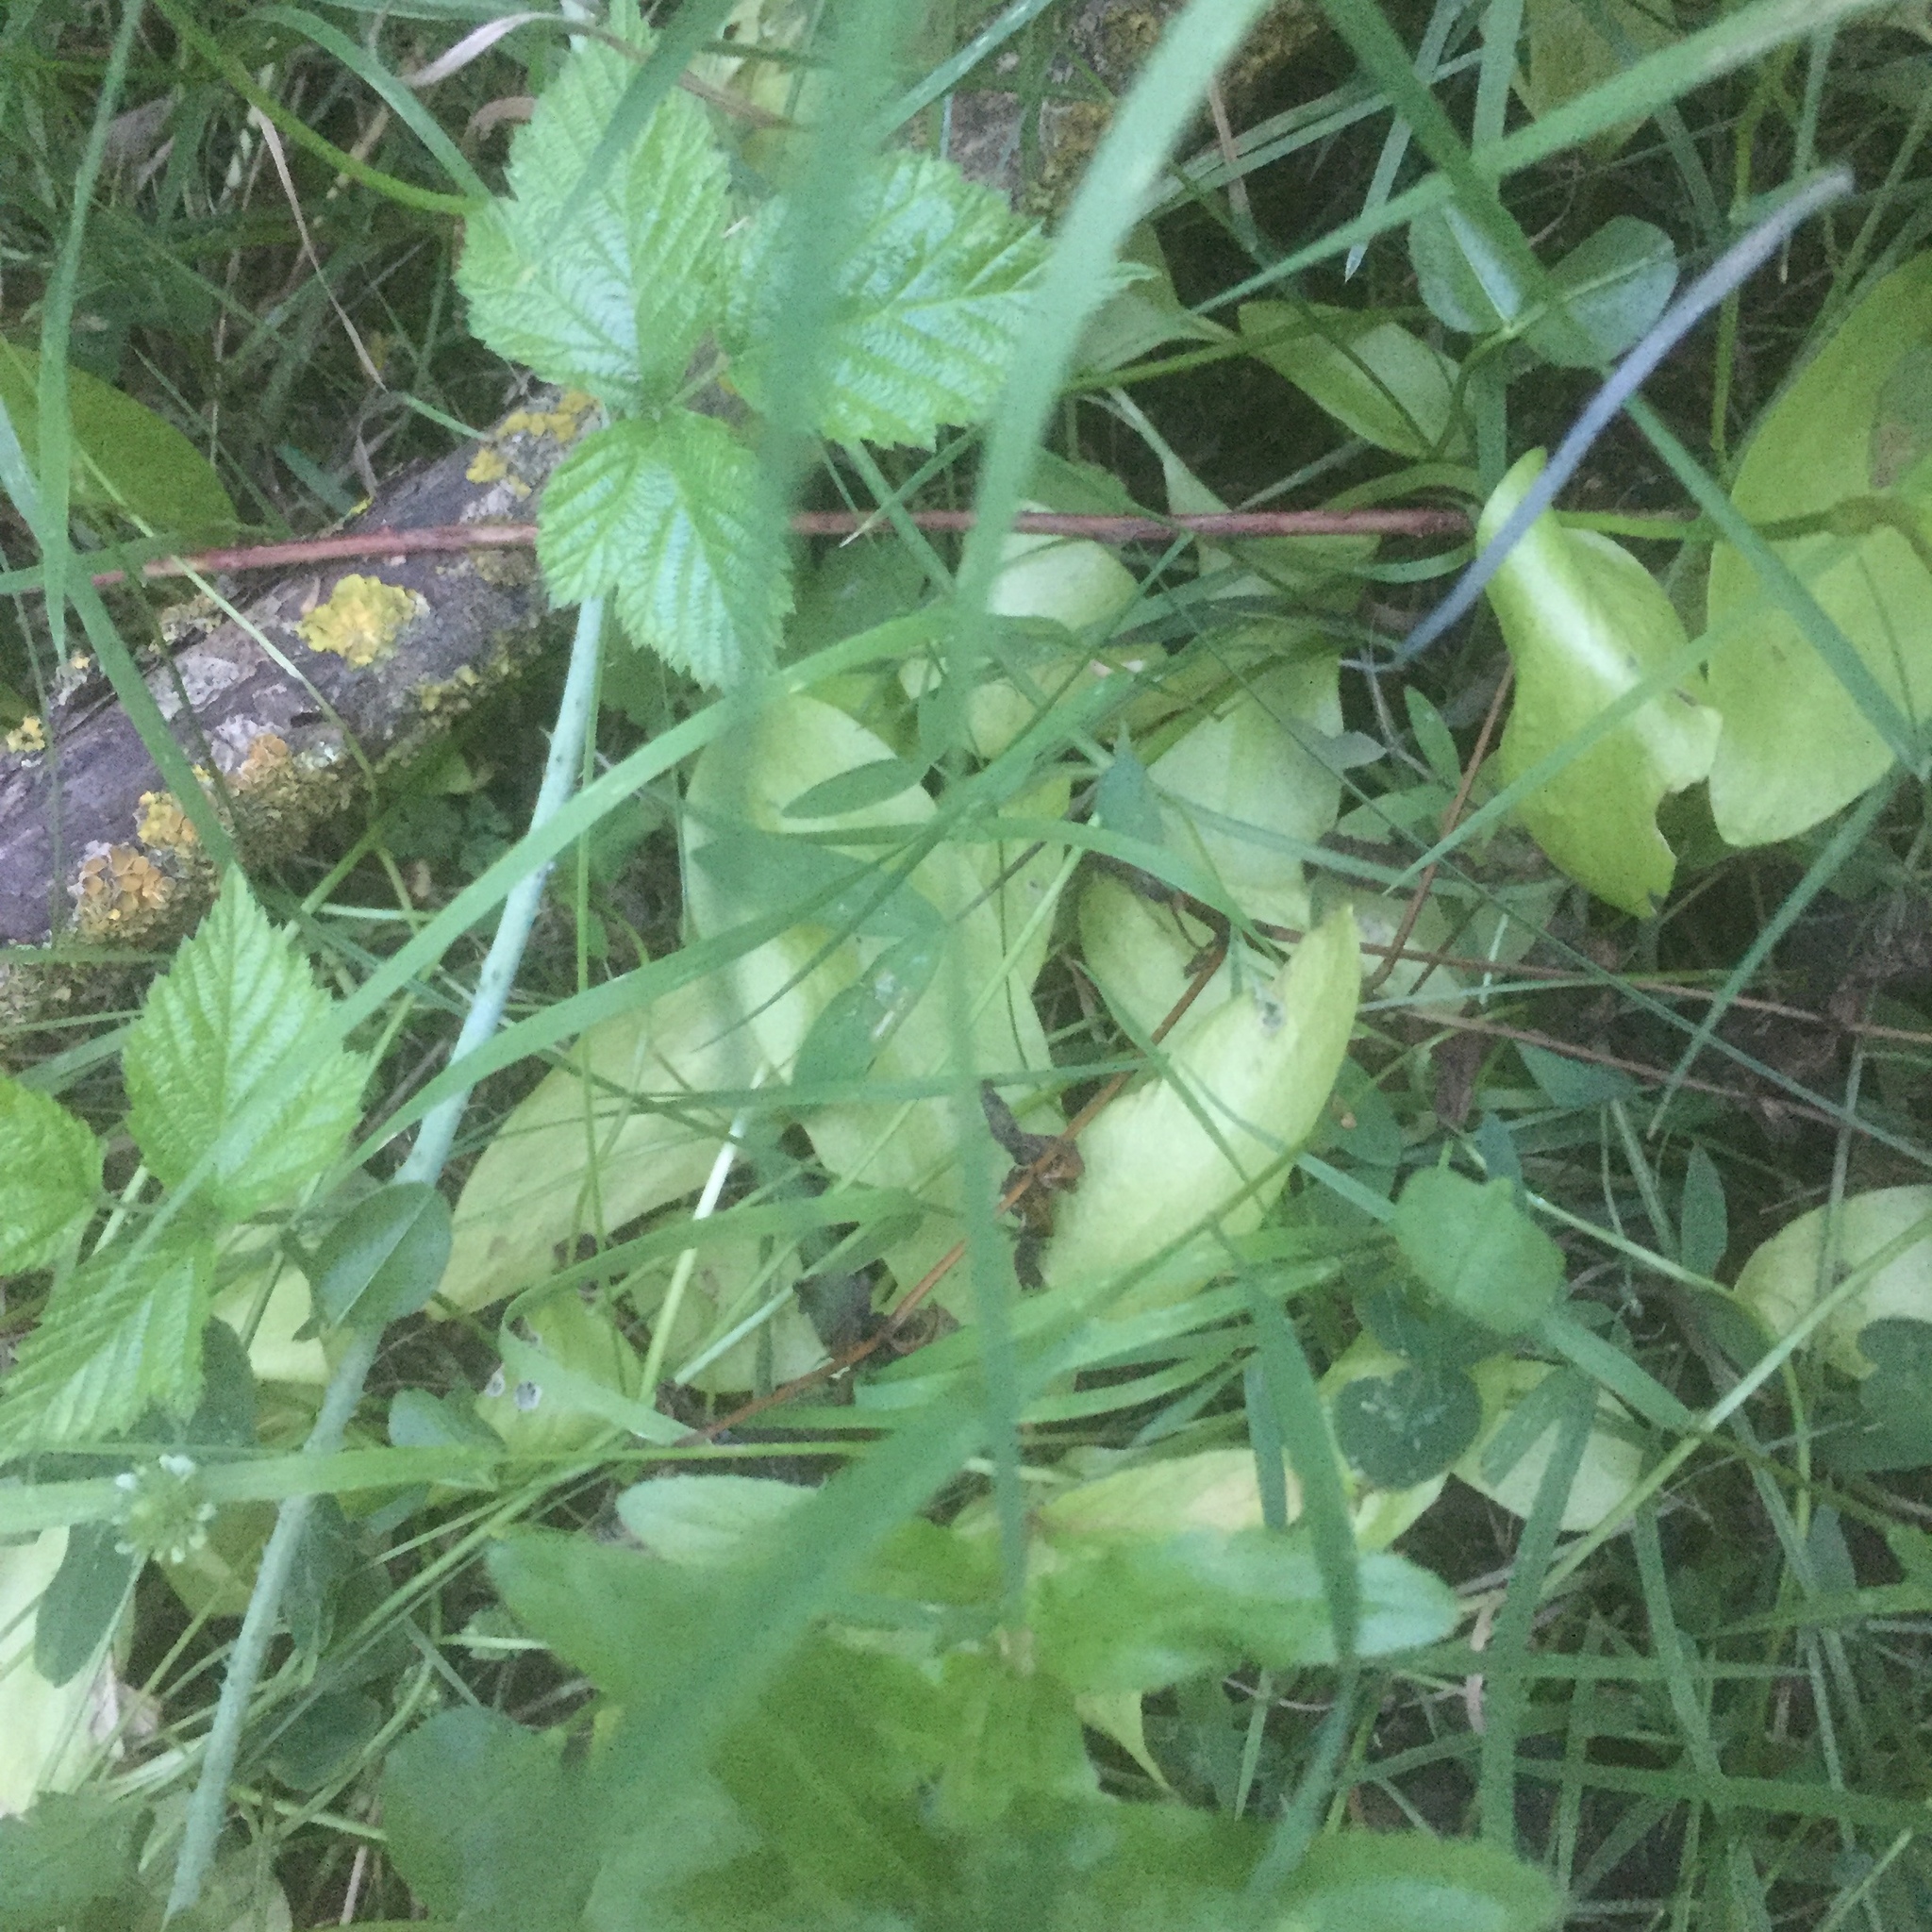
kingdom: Plantae
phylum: Tracheophyta
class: Polypodiopsida
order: Ophioglossales
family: Ophioglossaceae
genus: Ophioglossum
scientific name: Ophioglossum vulgatum
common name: Adder's-tongue
